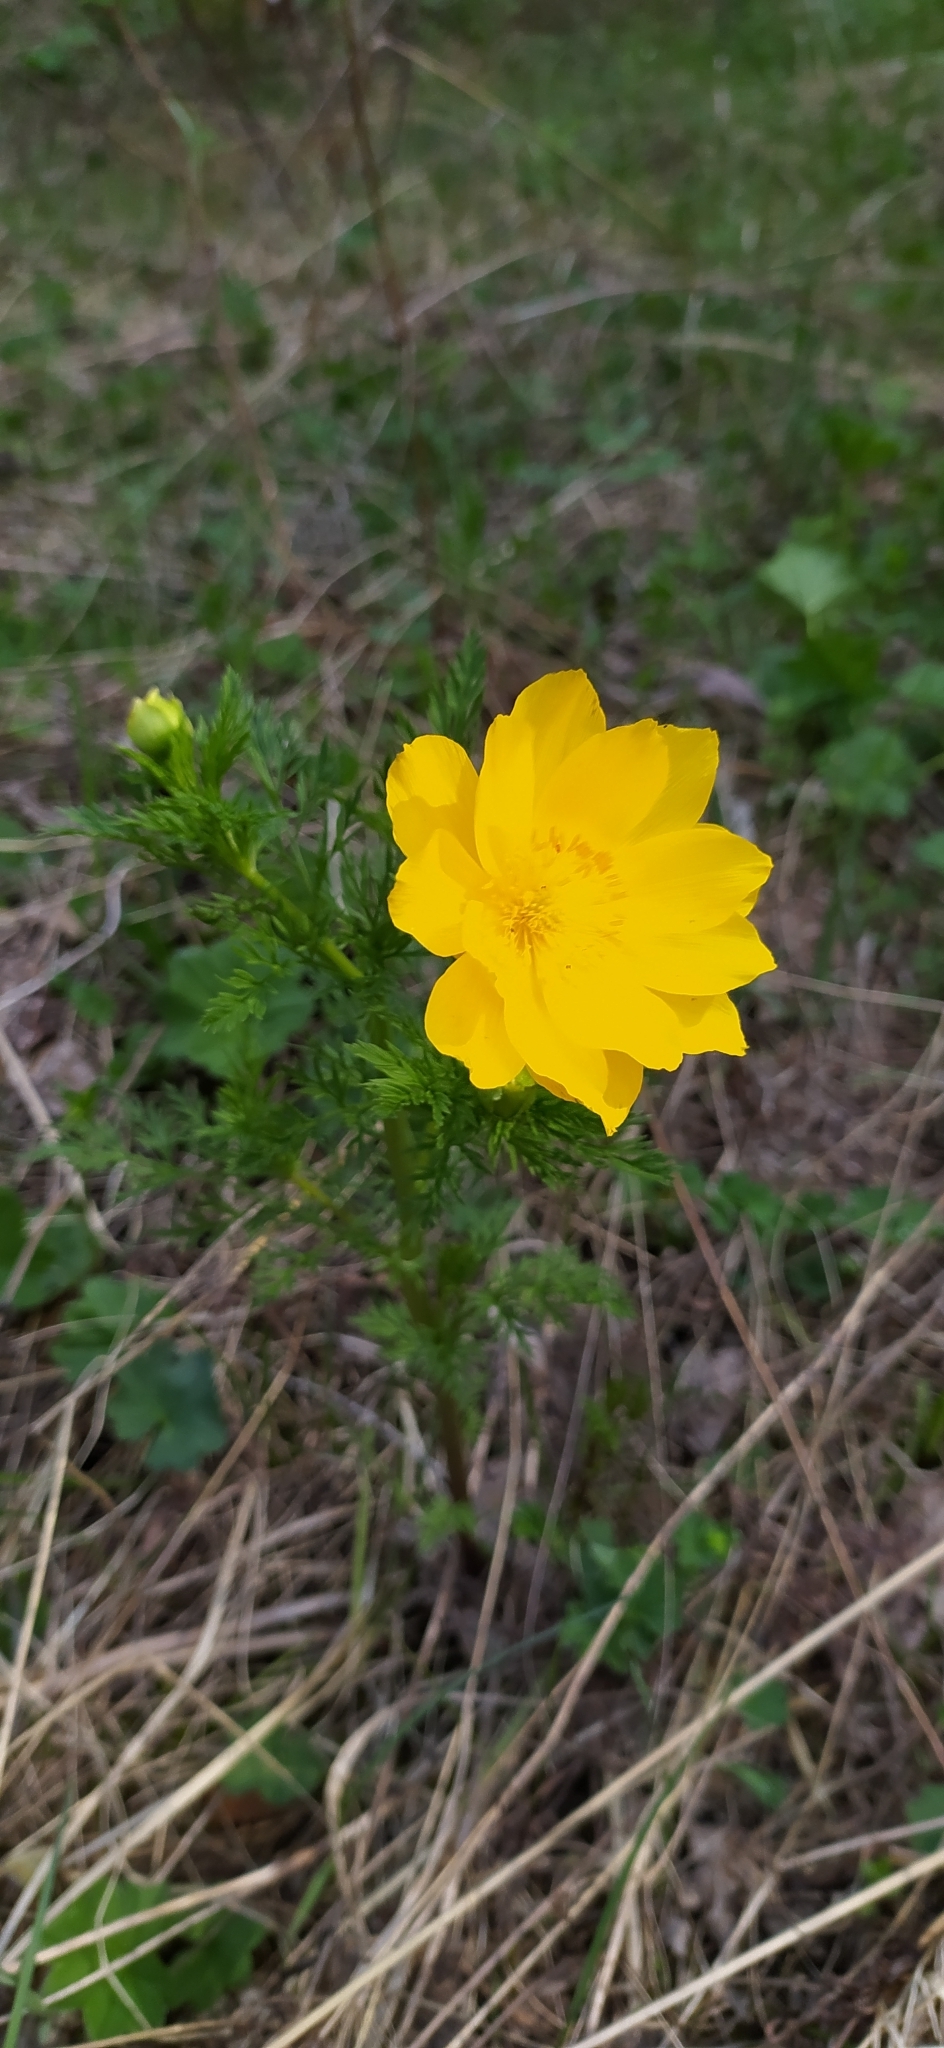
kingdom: Plantae
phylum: Tracheophyta
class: Magnoliopsida
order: Ranunculales
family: Ranunculaceae
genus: Adonis
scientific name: Adonis
